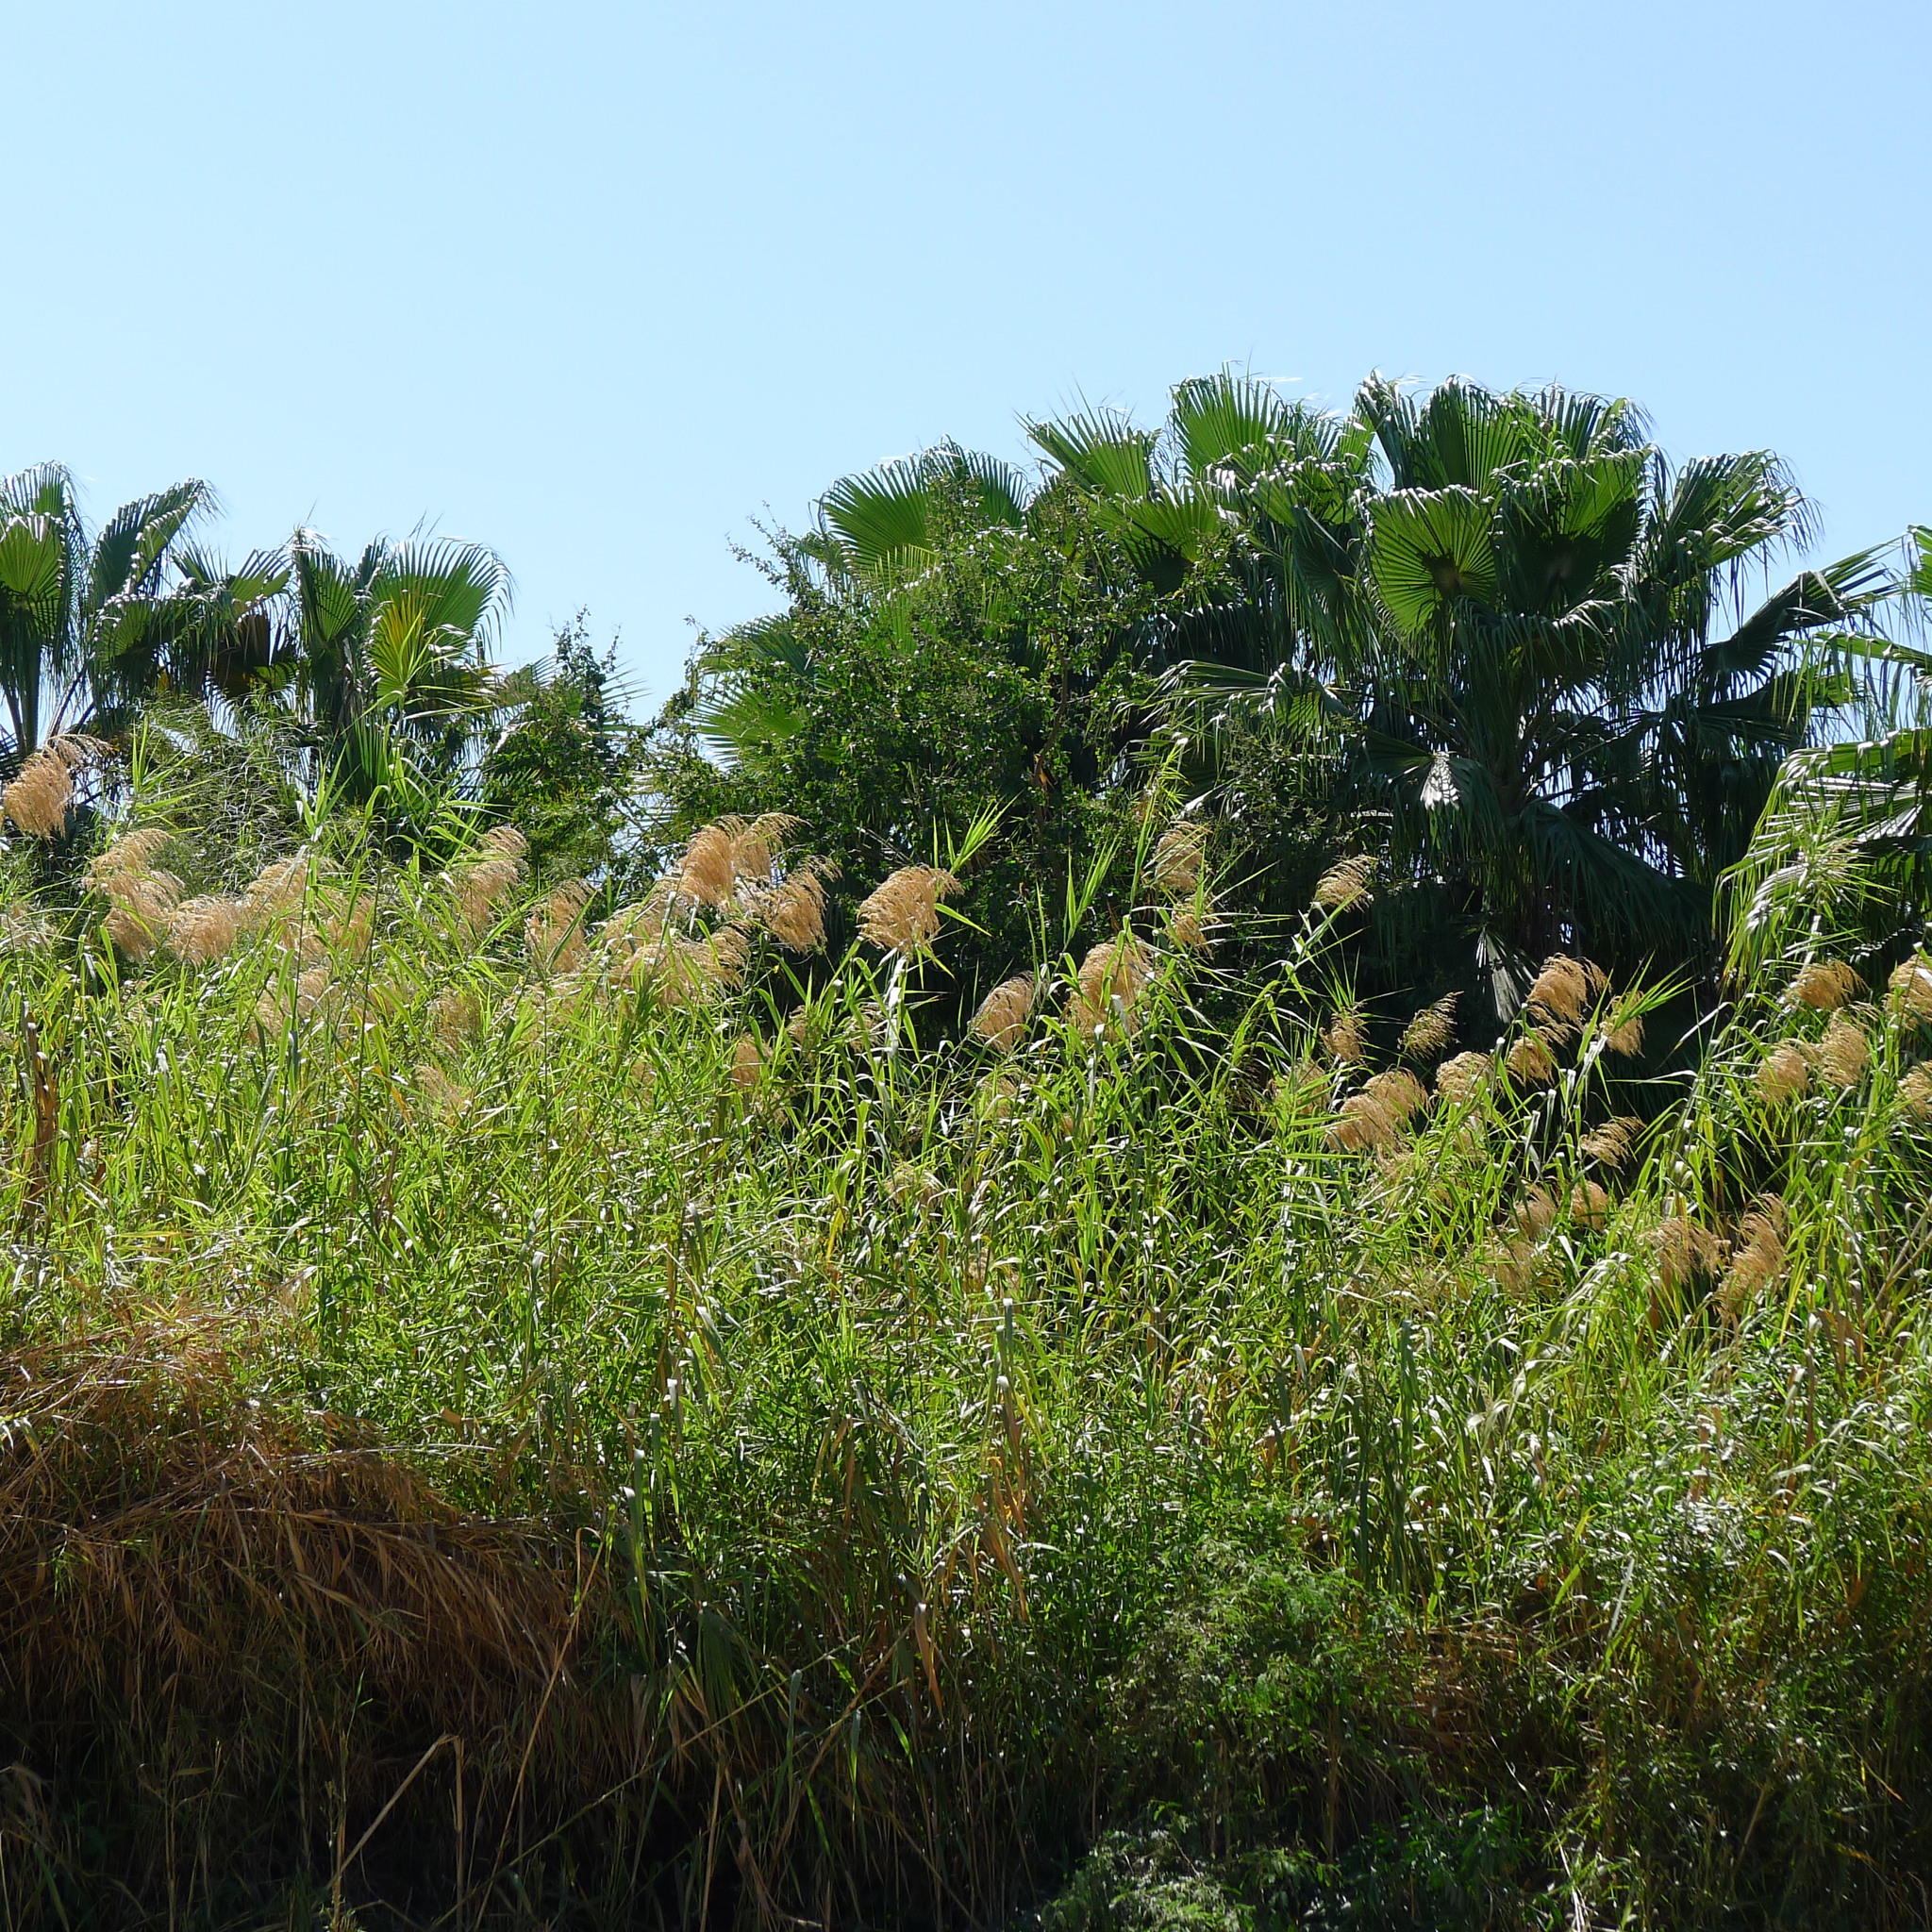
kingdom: Plantae
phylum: Tracheophyta
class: Liliopsida
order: Poales
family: Poaceae
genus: Phragmites
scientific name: Phragmites australis
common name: Common reed
